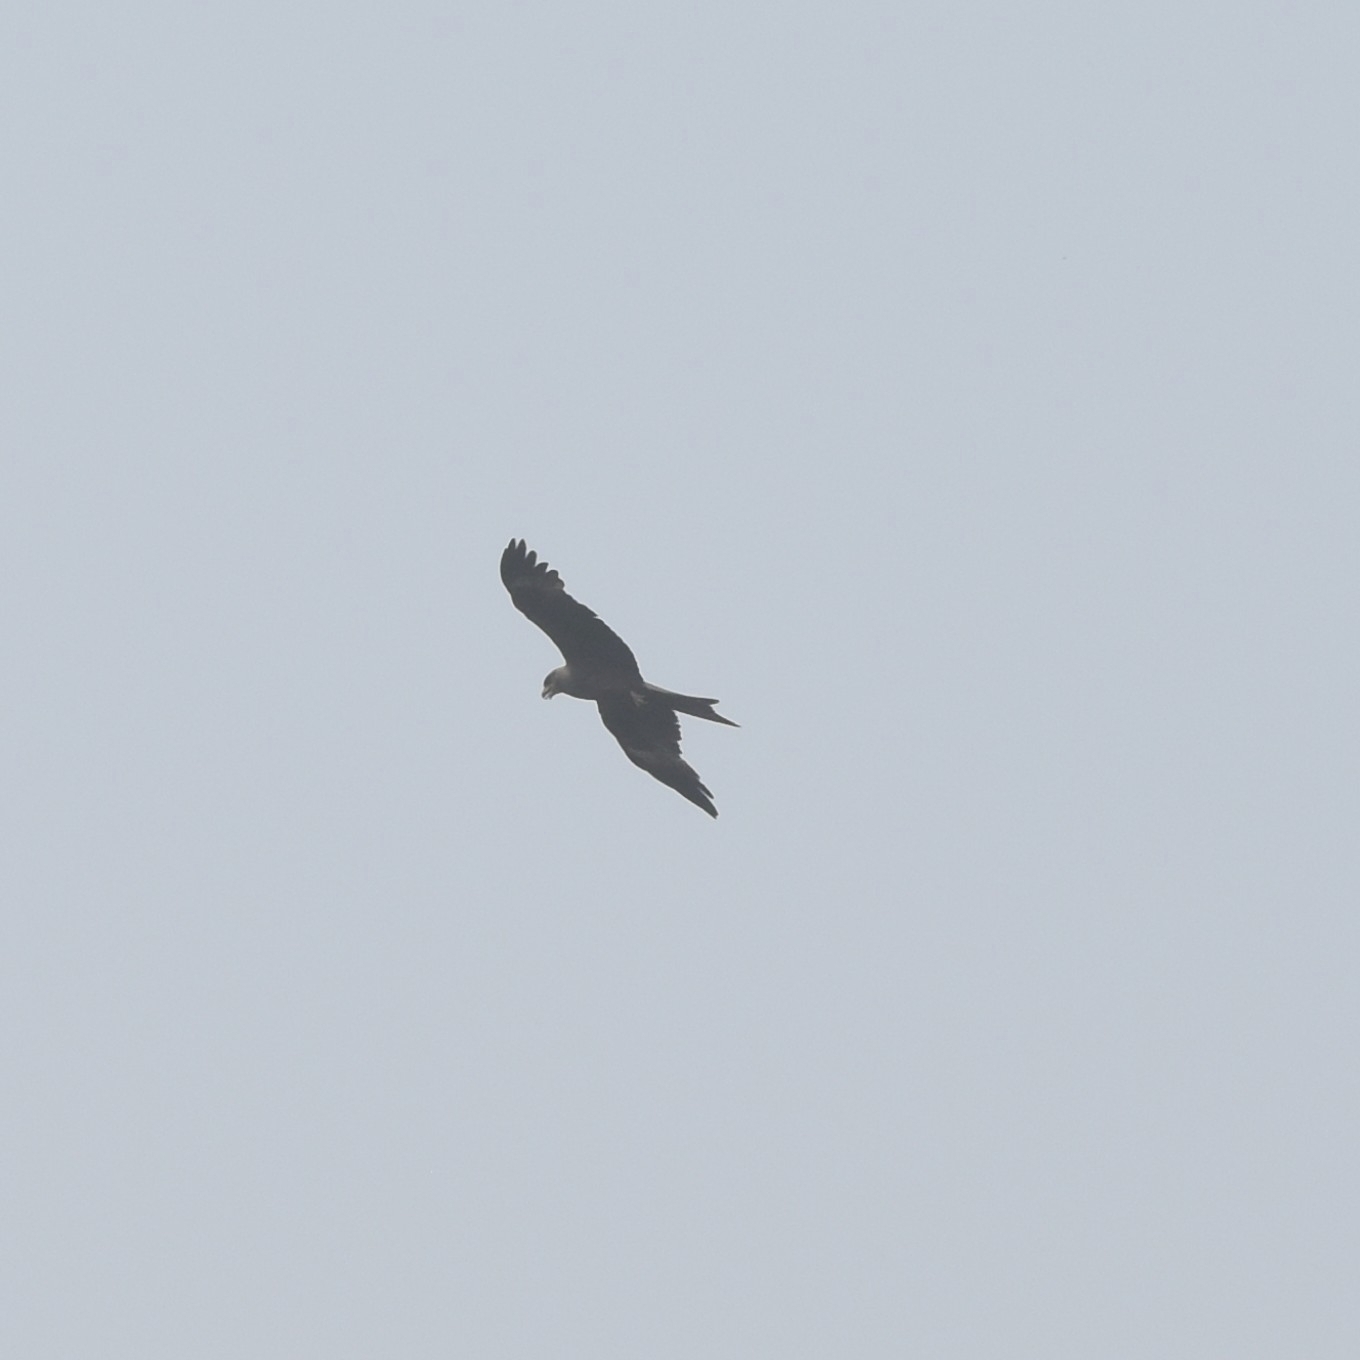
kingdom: Animalia
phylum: Chordata
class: Aves
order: Accipitriformes
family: Accipitridae
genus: Milvus
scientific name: Milvus migrans
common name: Black kite
